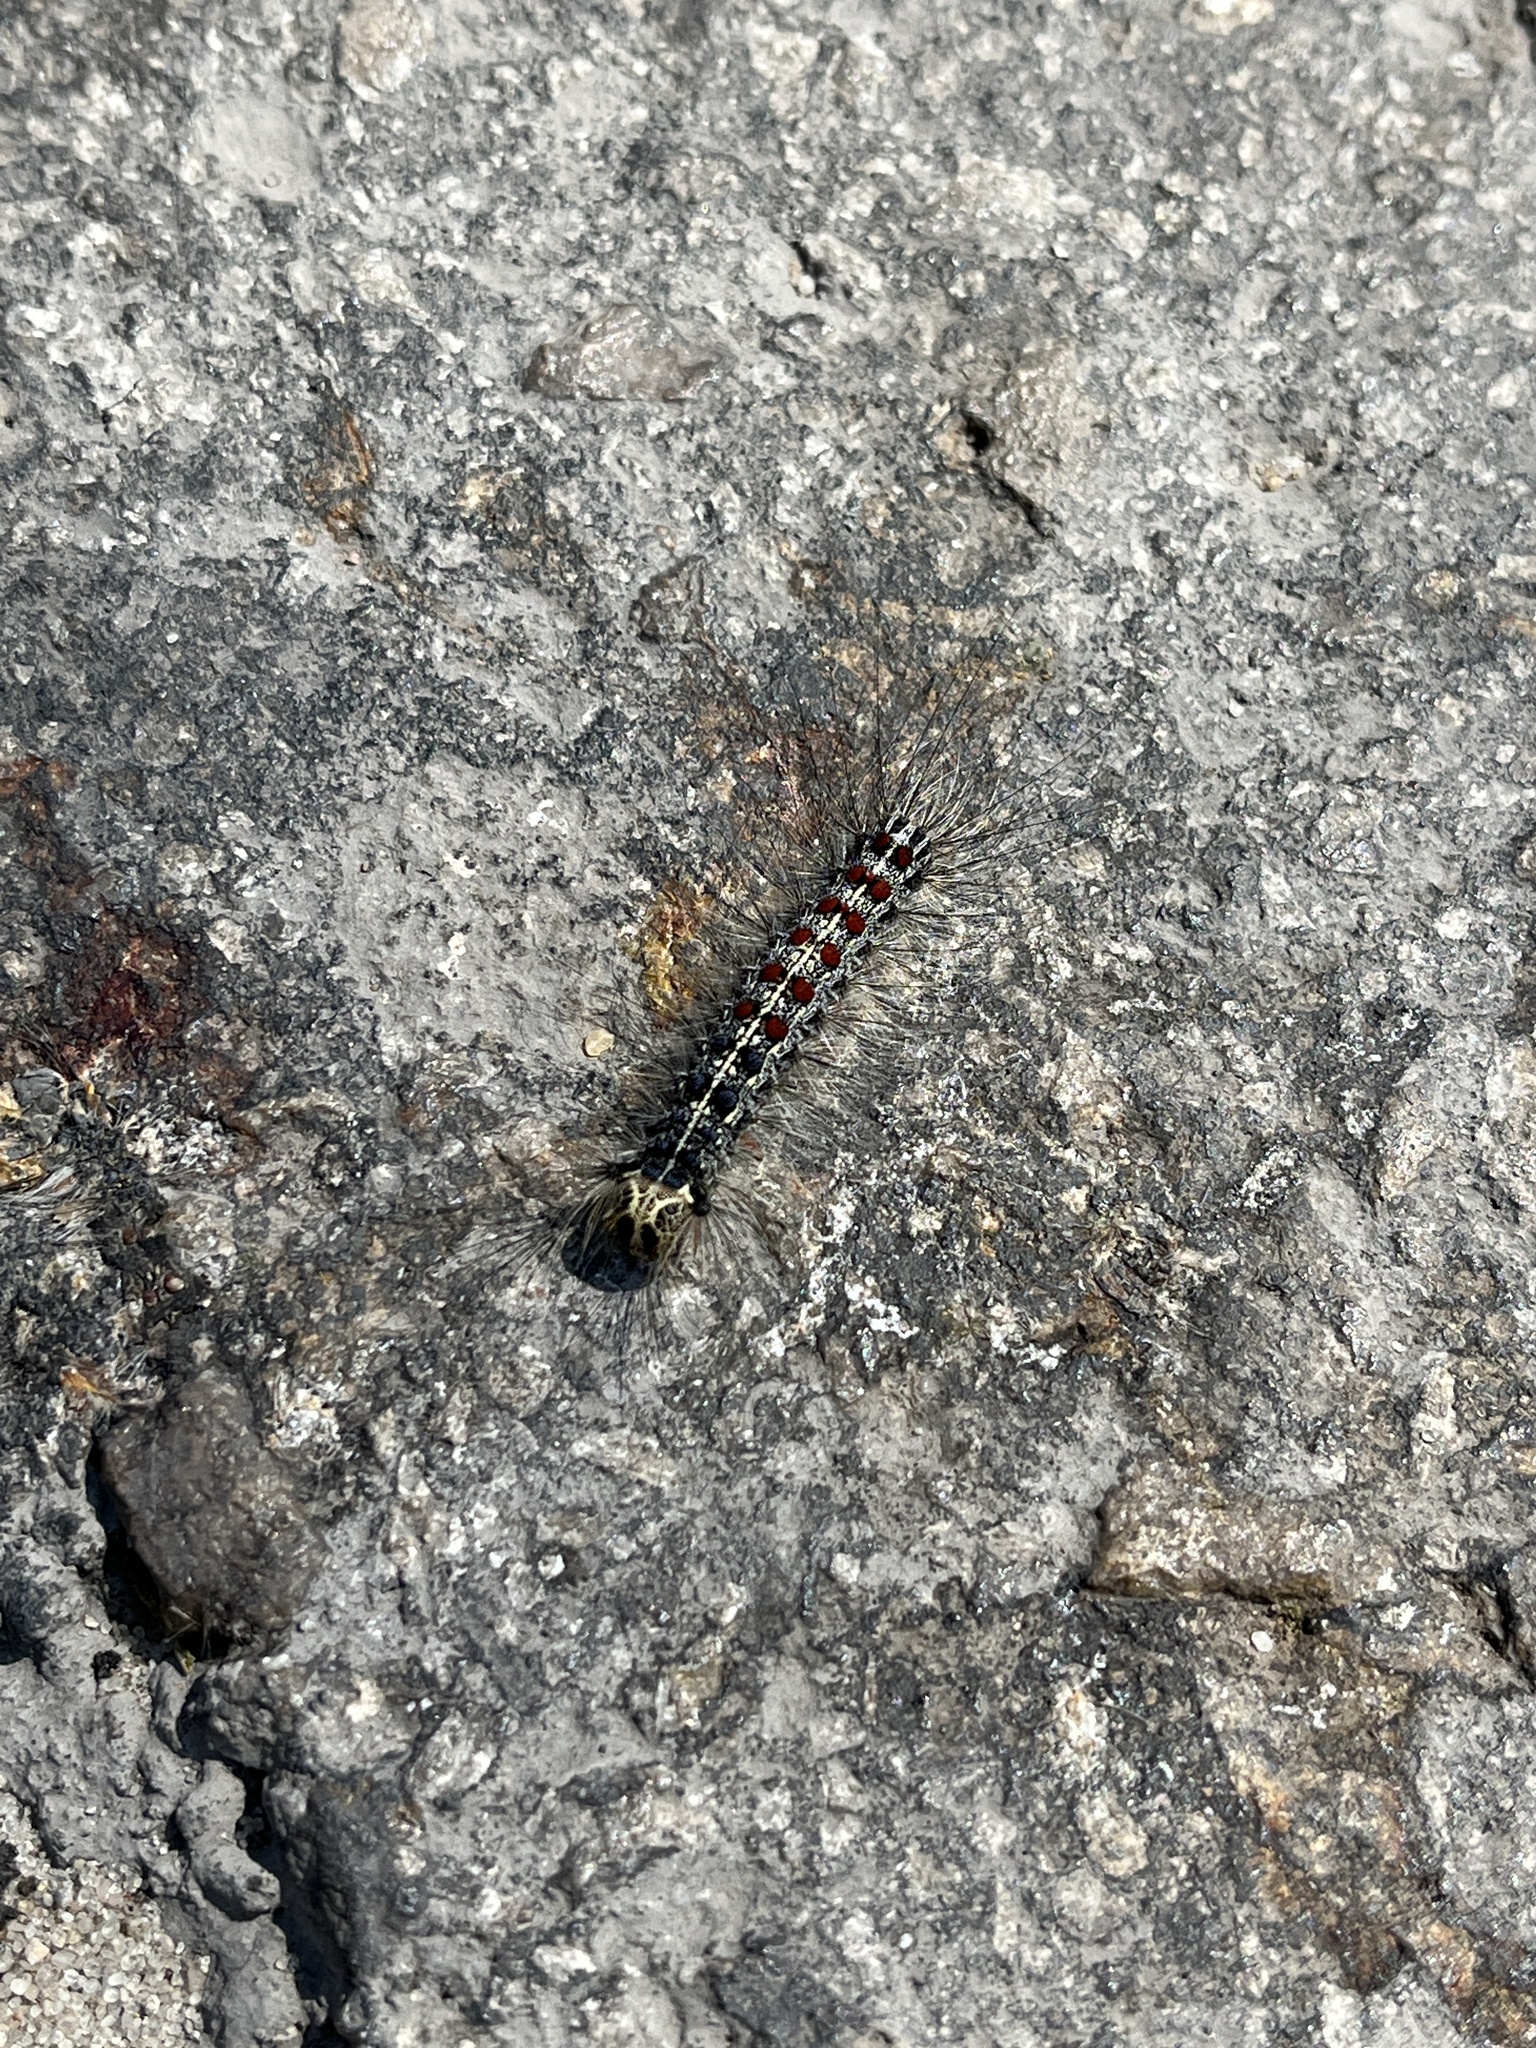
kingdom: Animalia
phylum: Arthropoda
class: Insecta
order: Lepidoptera
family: Erebidae
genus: Lymantria
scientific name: Lymantria dispar
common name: Gypsy moth
